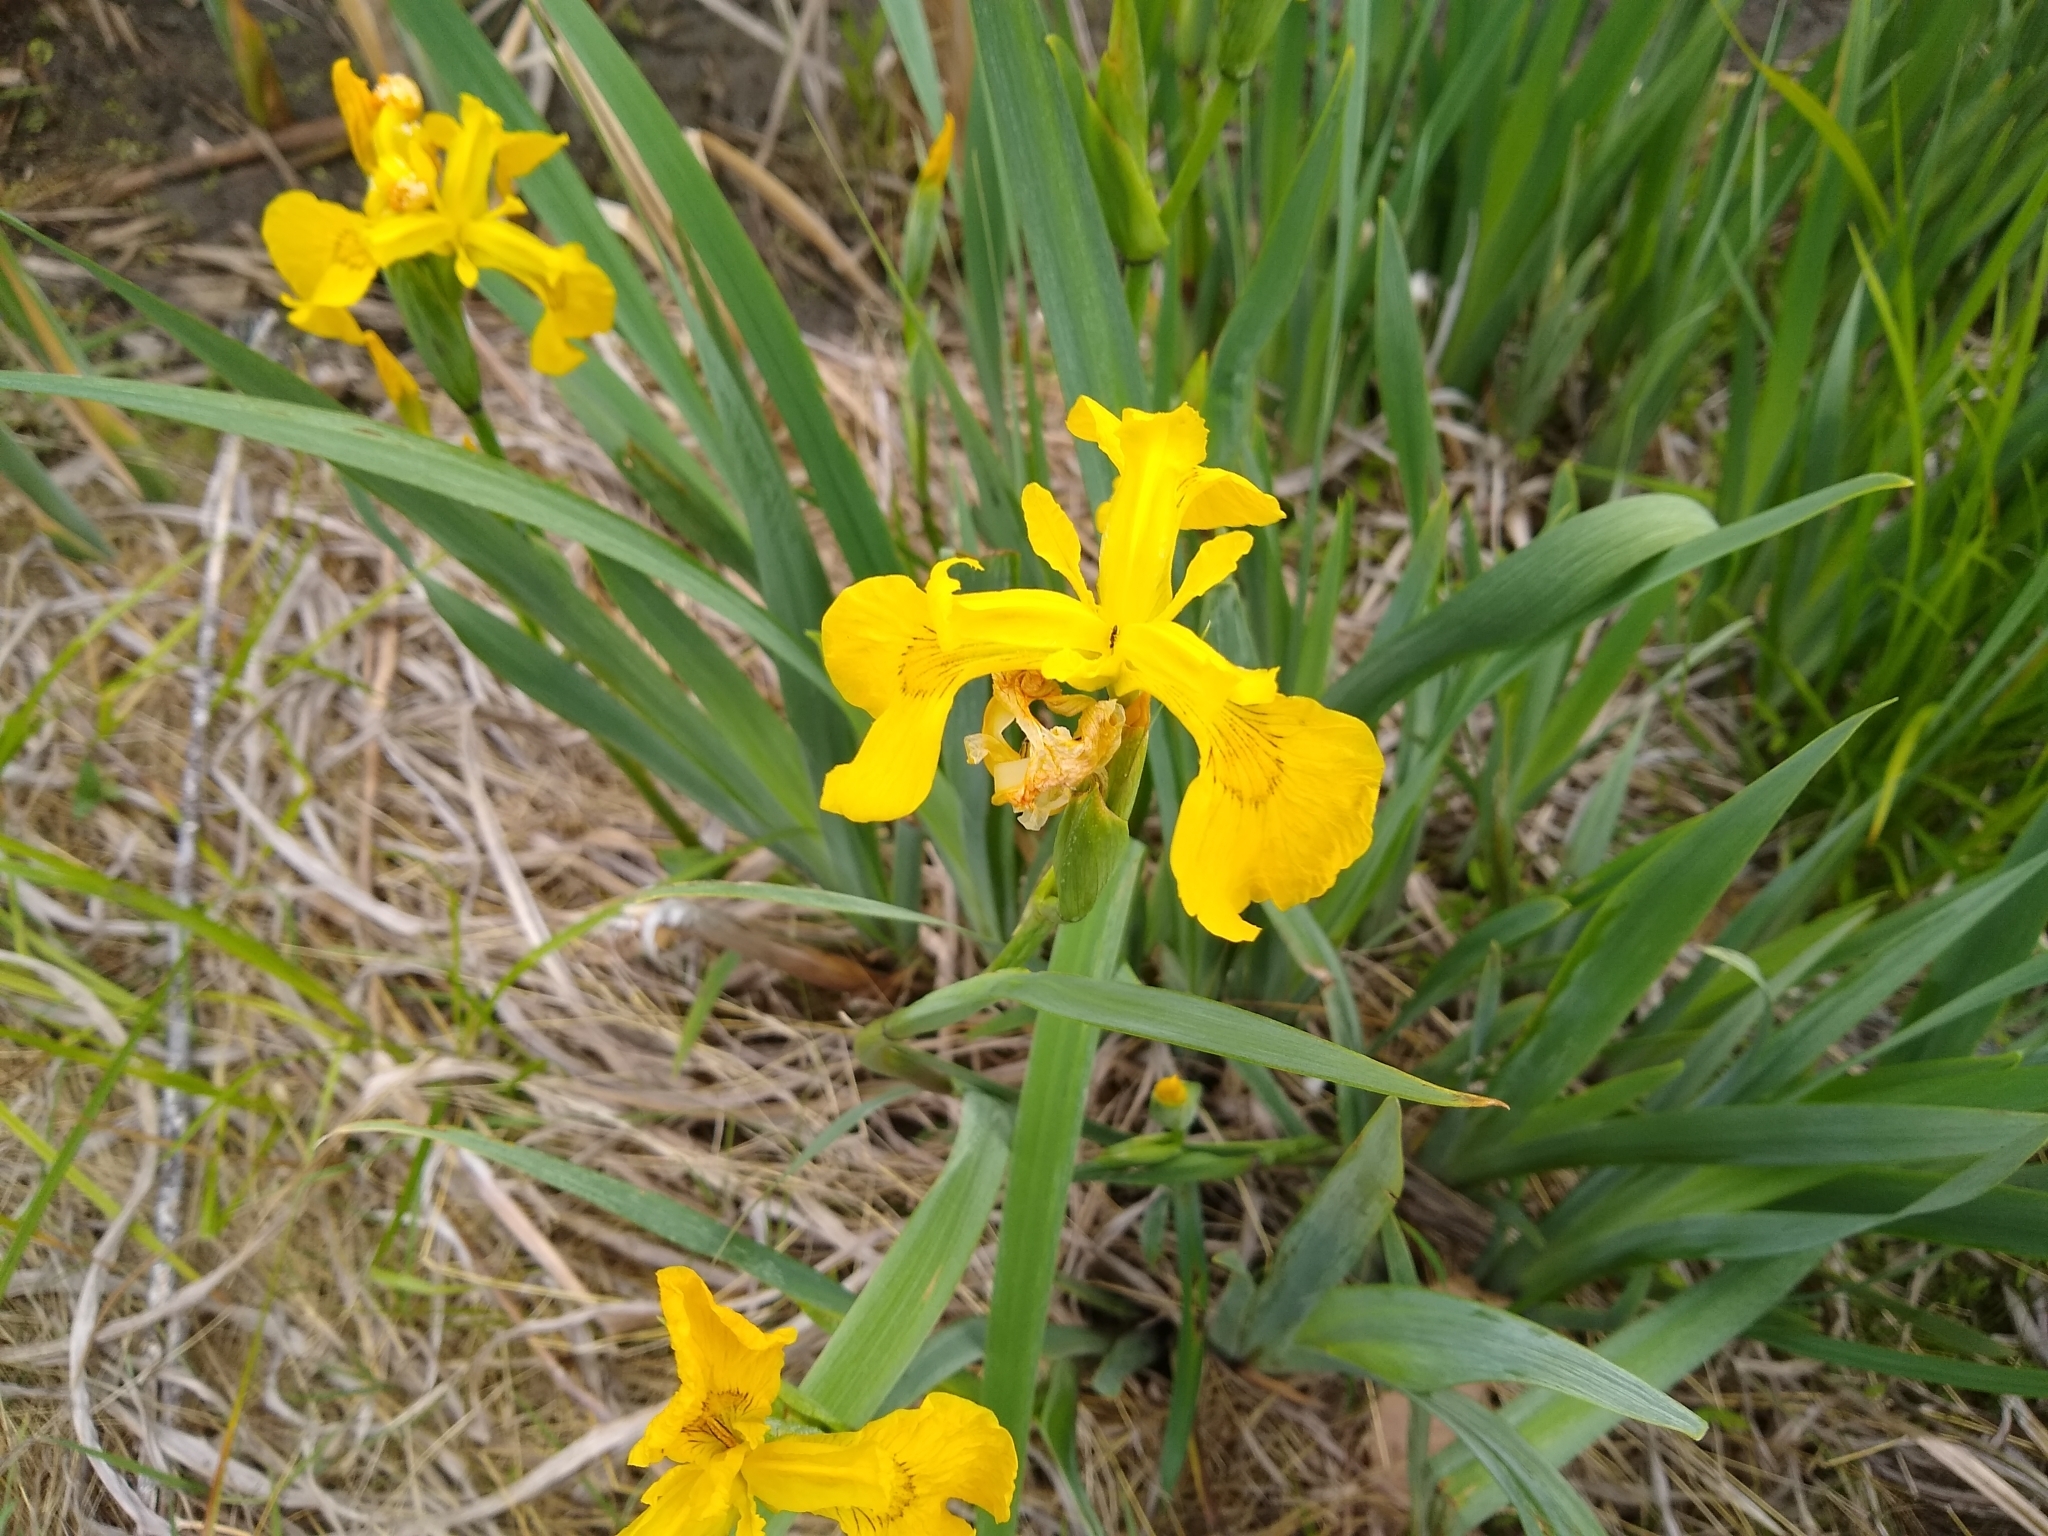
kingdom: Plantae
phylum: Tracheophyta
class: Liliopsida
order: Asparagales
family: Iridaceae
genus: Iris
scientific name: Iris pseudacorus
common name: Yellow flag
